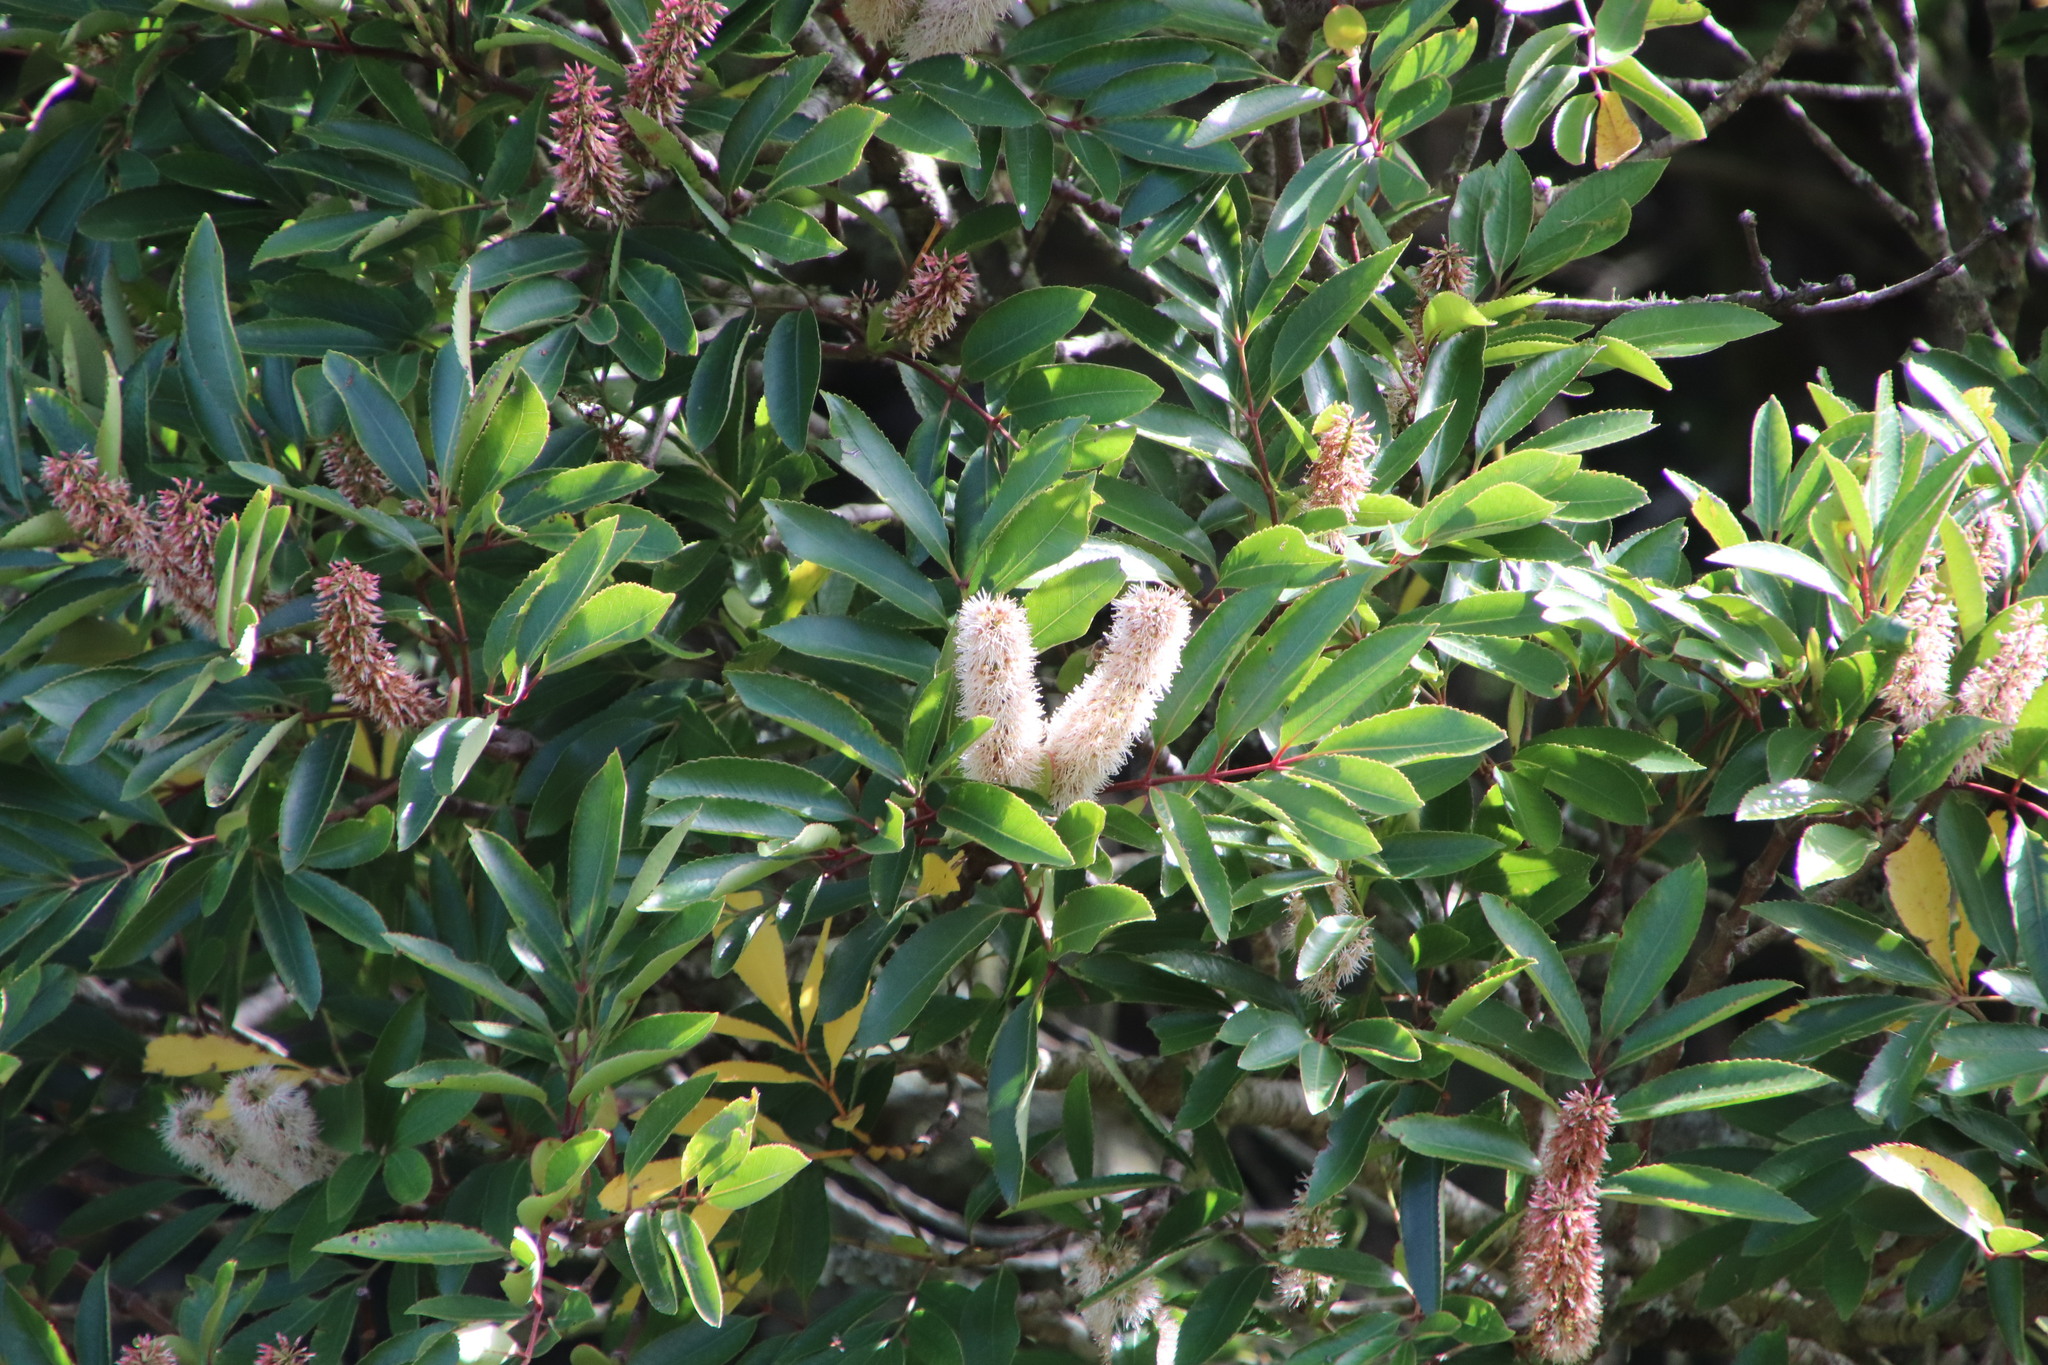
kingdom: Plantae
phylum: Tracheophyta
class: Magnoliopsida
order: Oxalidales
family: Cunoniaceae
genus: Cunonia
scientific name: Cunonia capensis
